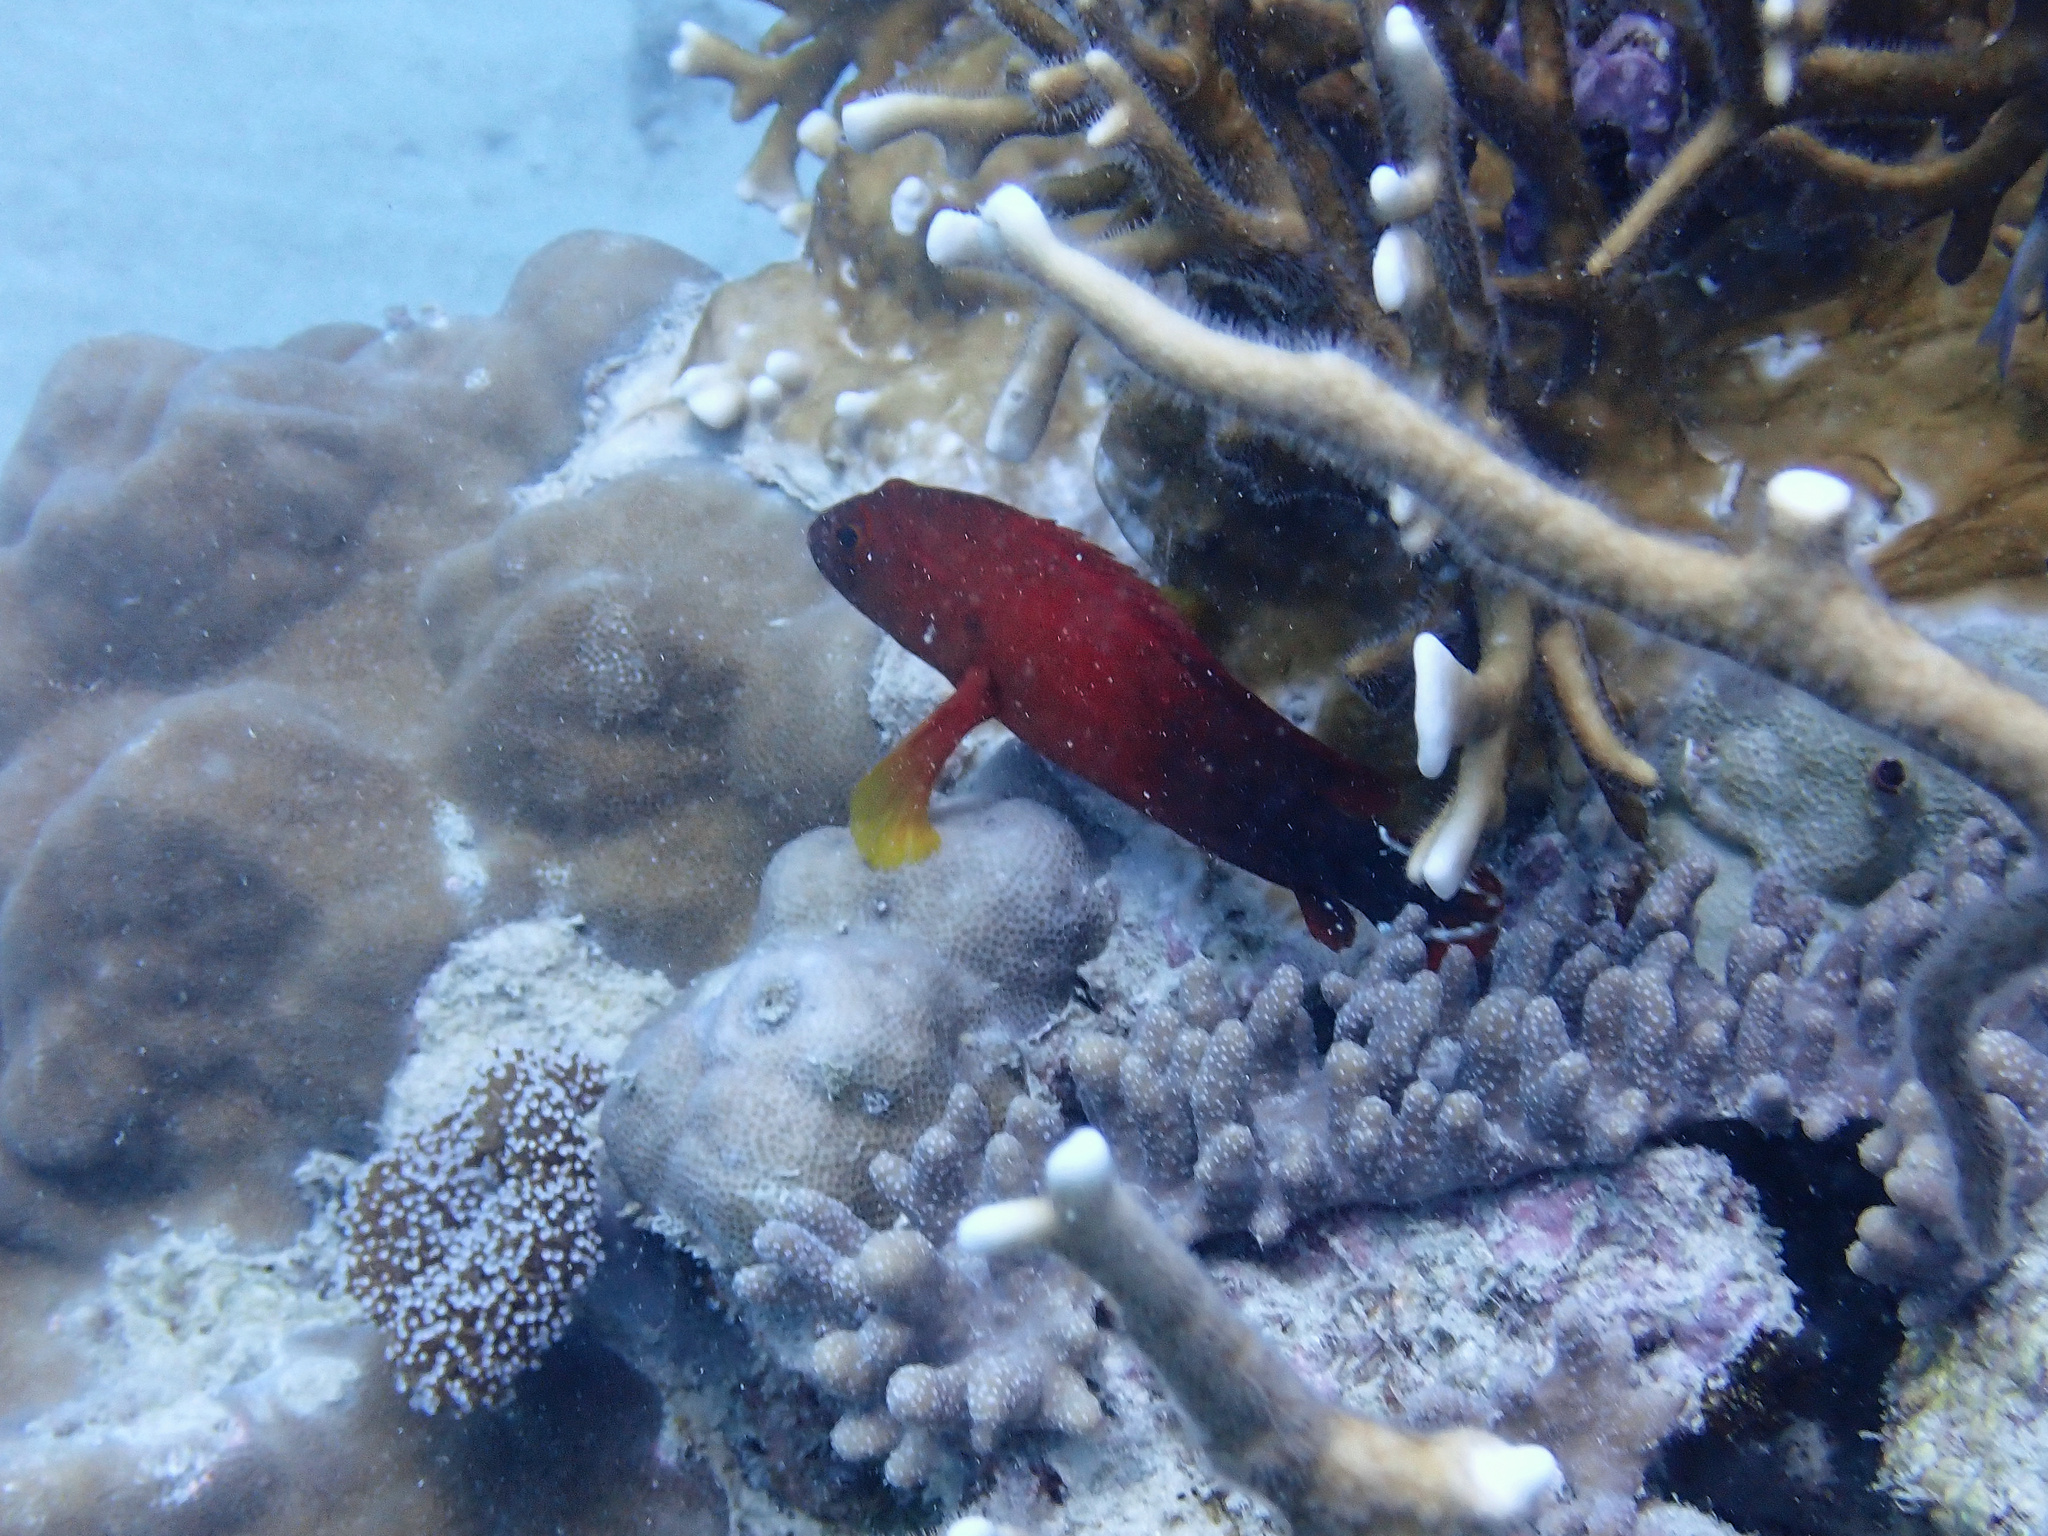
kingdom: Animalia
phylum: Chordata
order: Perciformes
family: Serranidae
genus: Cephalopholis
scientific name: Cephalopholis urodeta
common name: Darkfin hind
